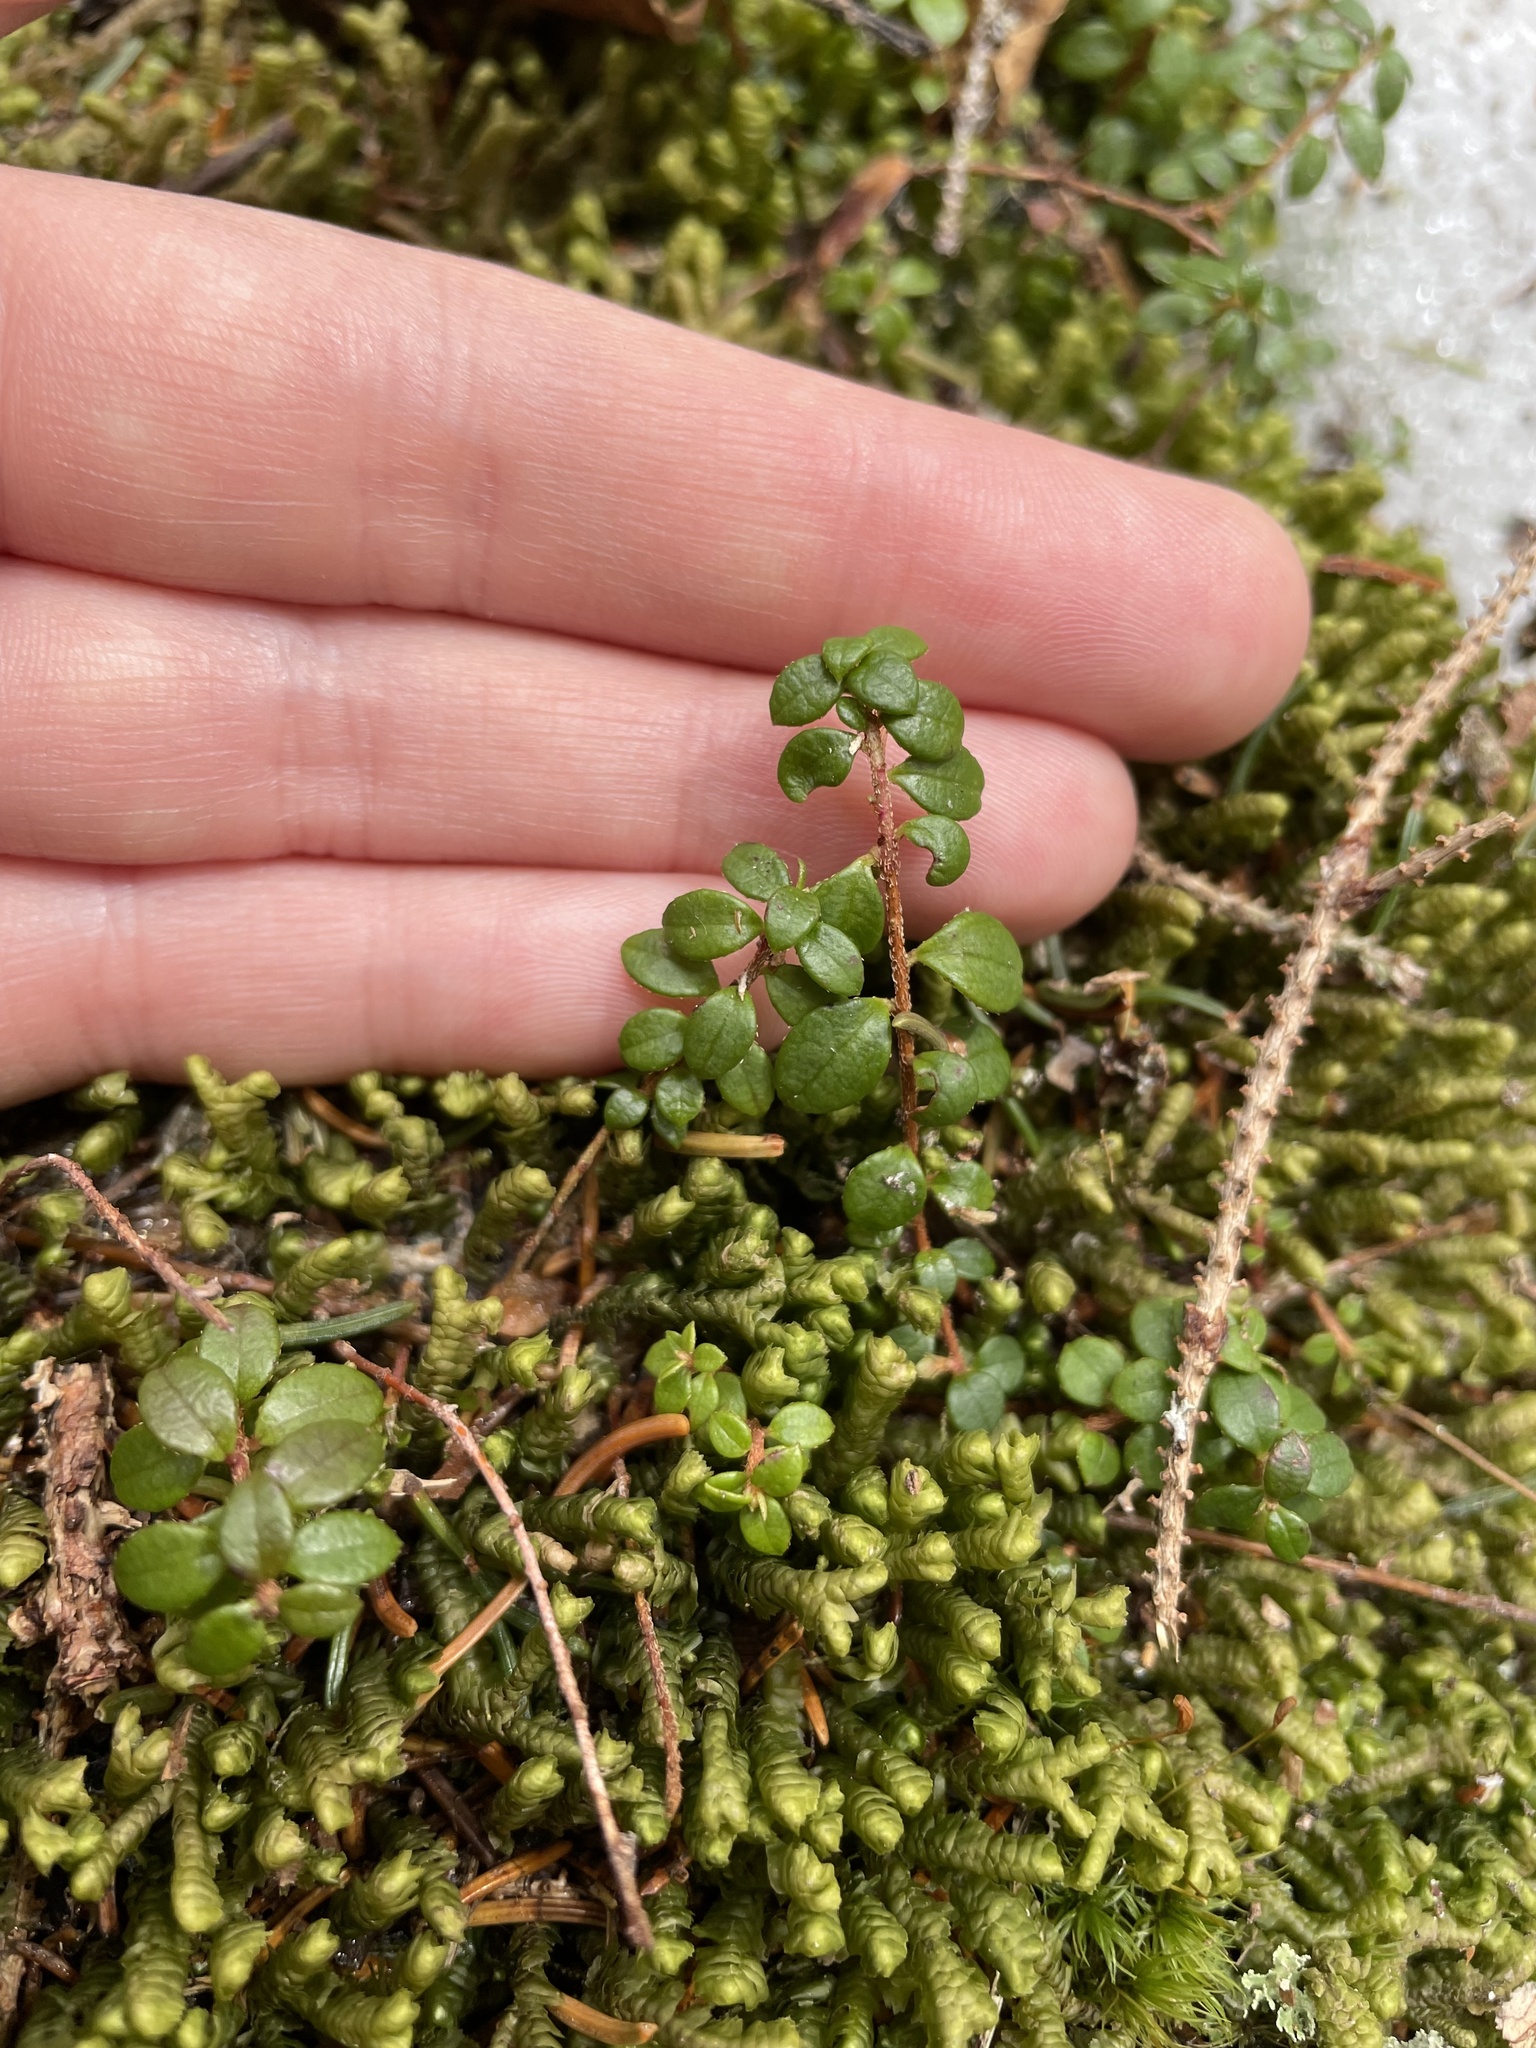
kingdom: Plantae
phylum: Tracheophyta
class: Magnoliopsida
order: Ericales
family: Ericaceae
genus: Gaultheria
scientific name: Gaultheria hispidula
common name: Cancer wintergreen
